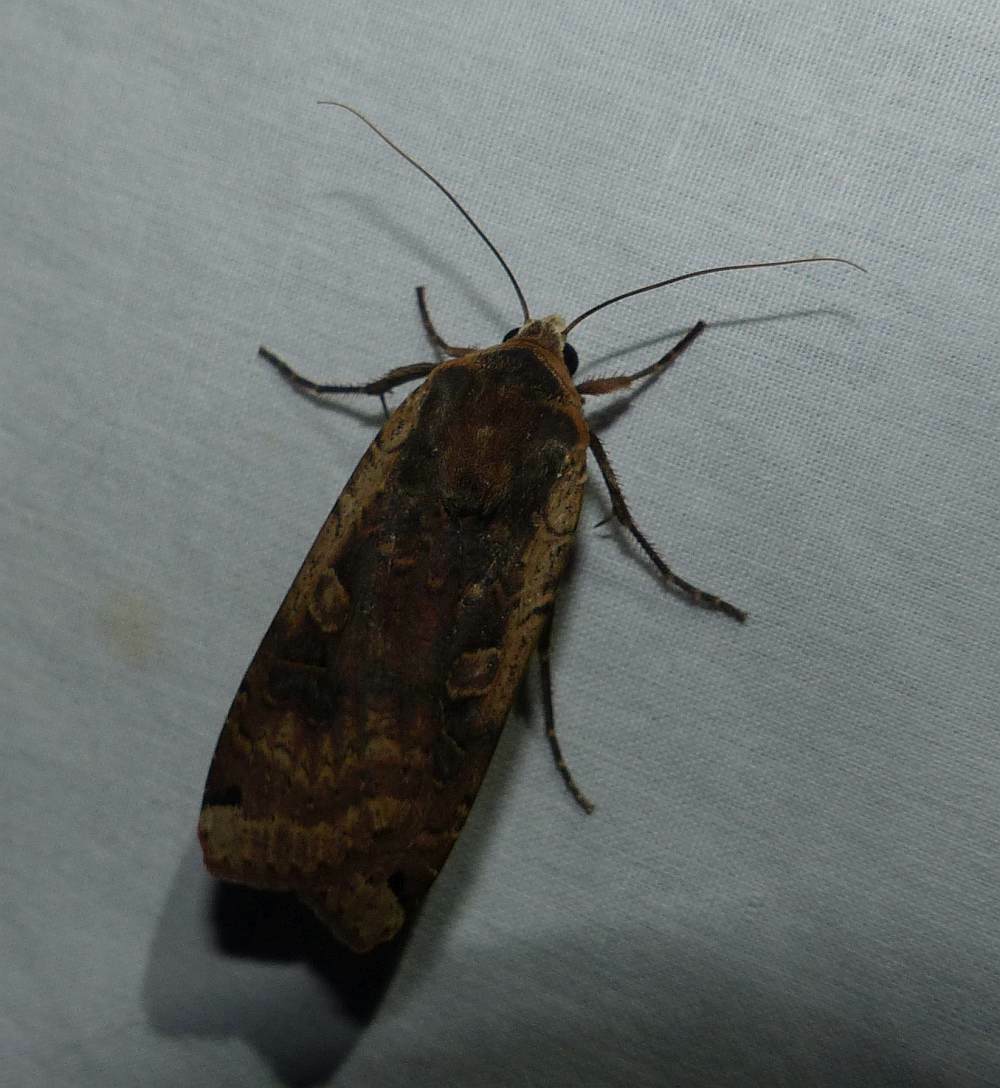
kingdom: Animalia
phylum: Arthropoda
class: Insecta
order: Lepidoptera
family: Noctuidae
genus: Noctua
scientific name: Noctua pronuba
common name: Large yellow underwing
